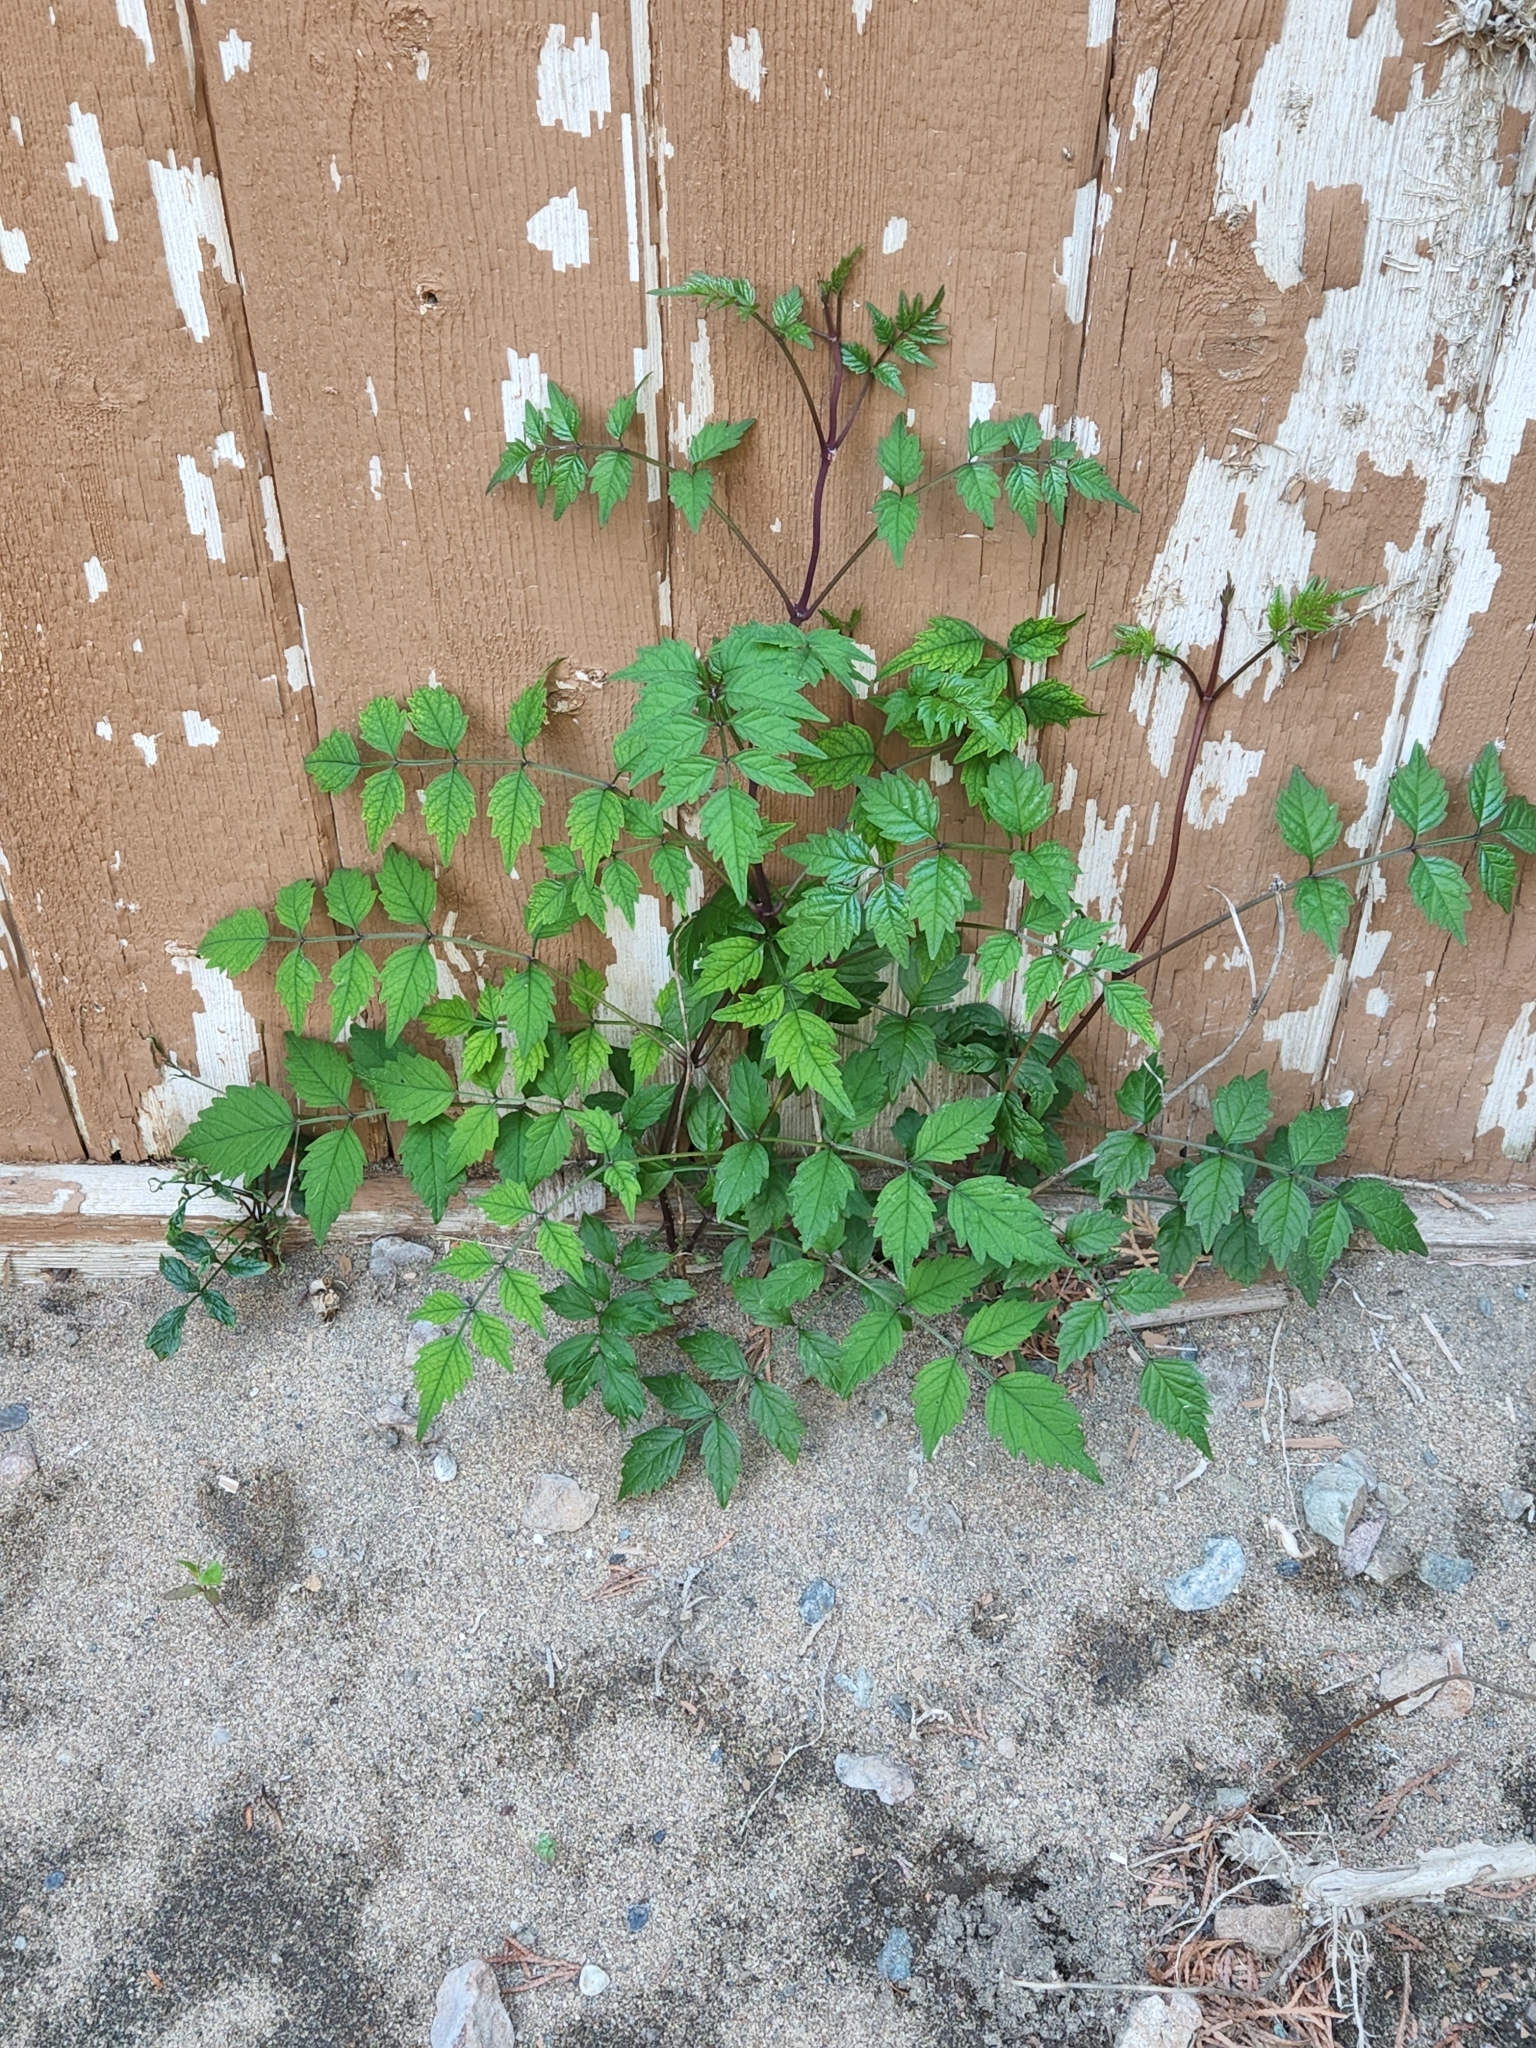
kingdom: Plantae
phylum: Tracheophyta
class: Magnoliopsida
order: Lamiales
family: Bignoniaceae
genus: Campsis
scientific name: Campsis radicans
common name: Trumpet-creeper
